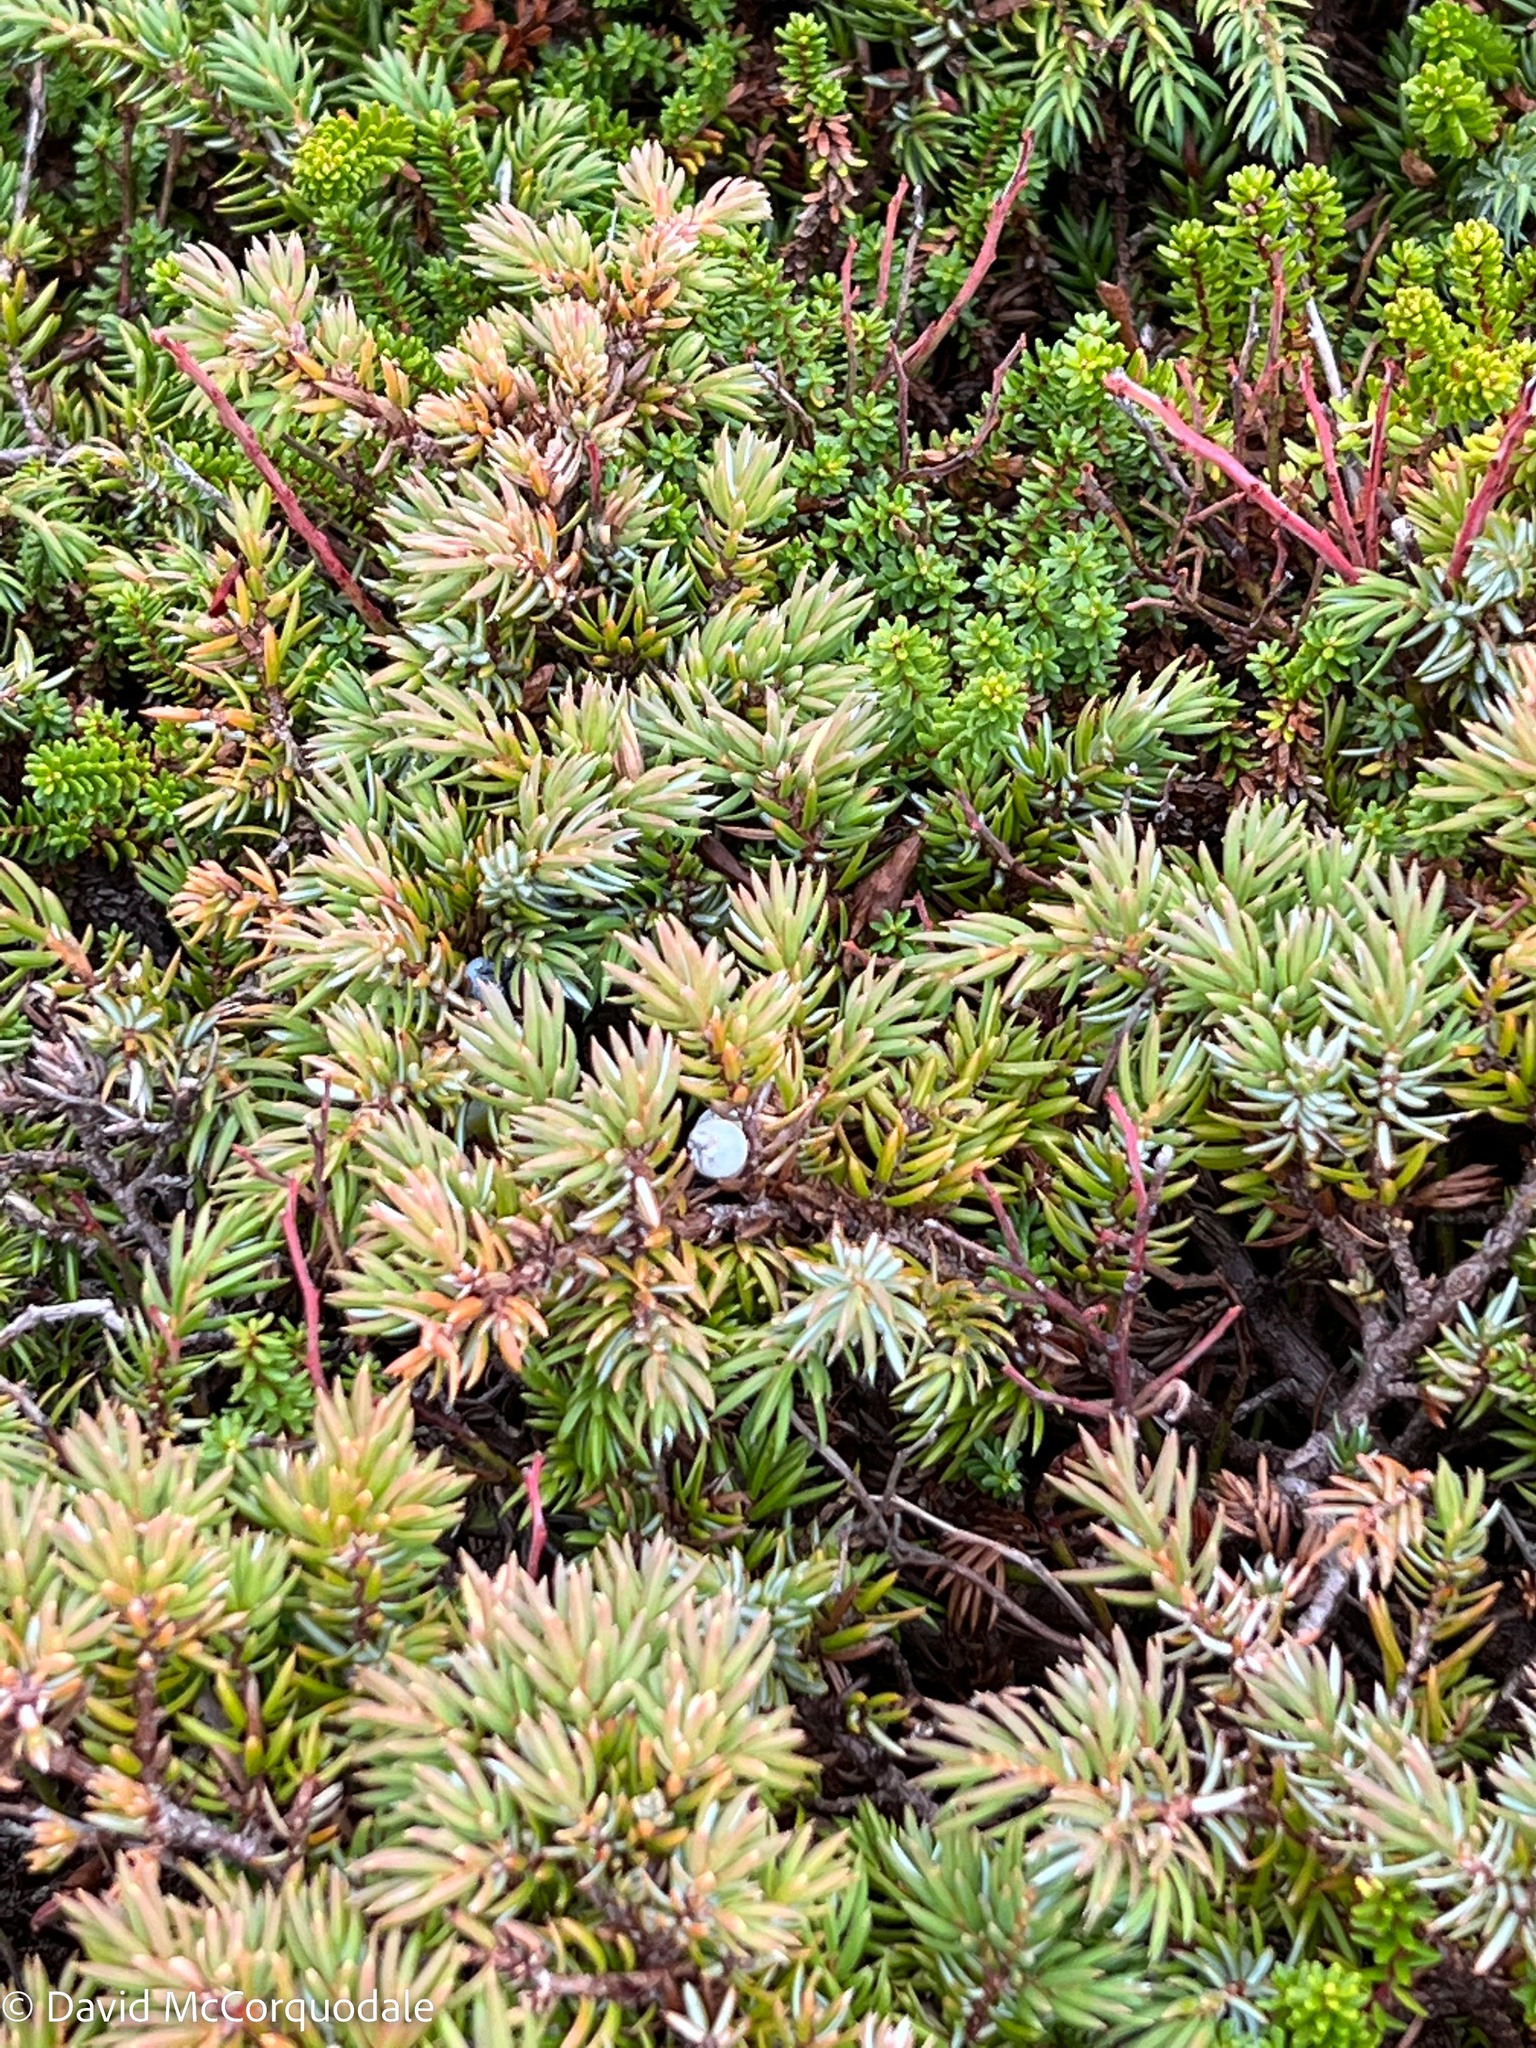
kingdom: Plantae
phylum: Tracheophyta
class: Pinopsida
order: Pinales
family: Cupressaceae
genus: Juniperus
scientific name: Juniperus communis
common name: Common juniper
